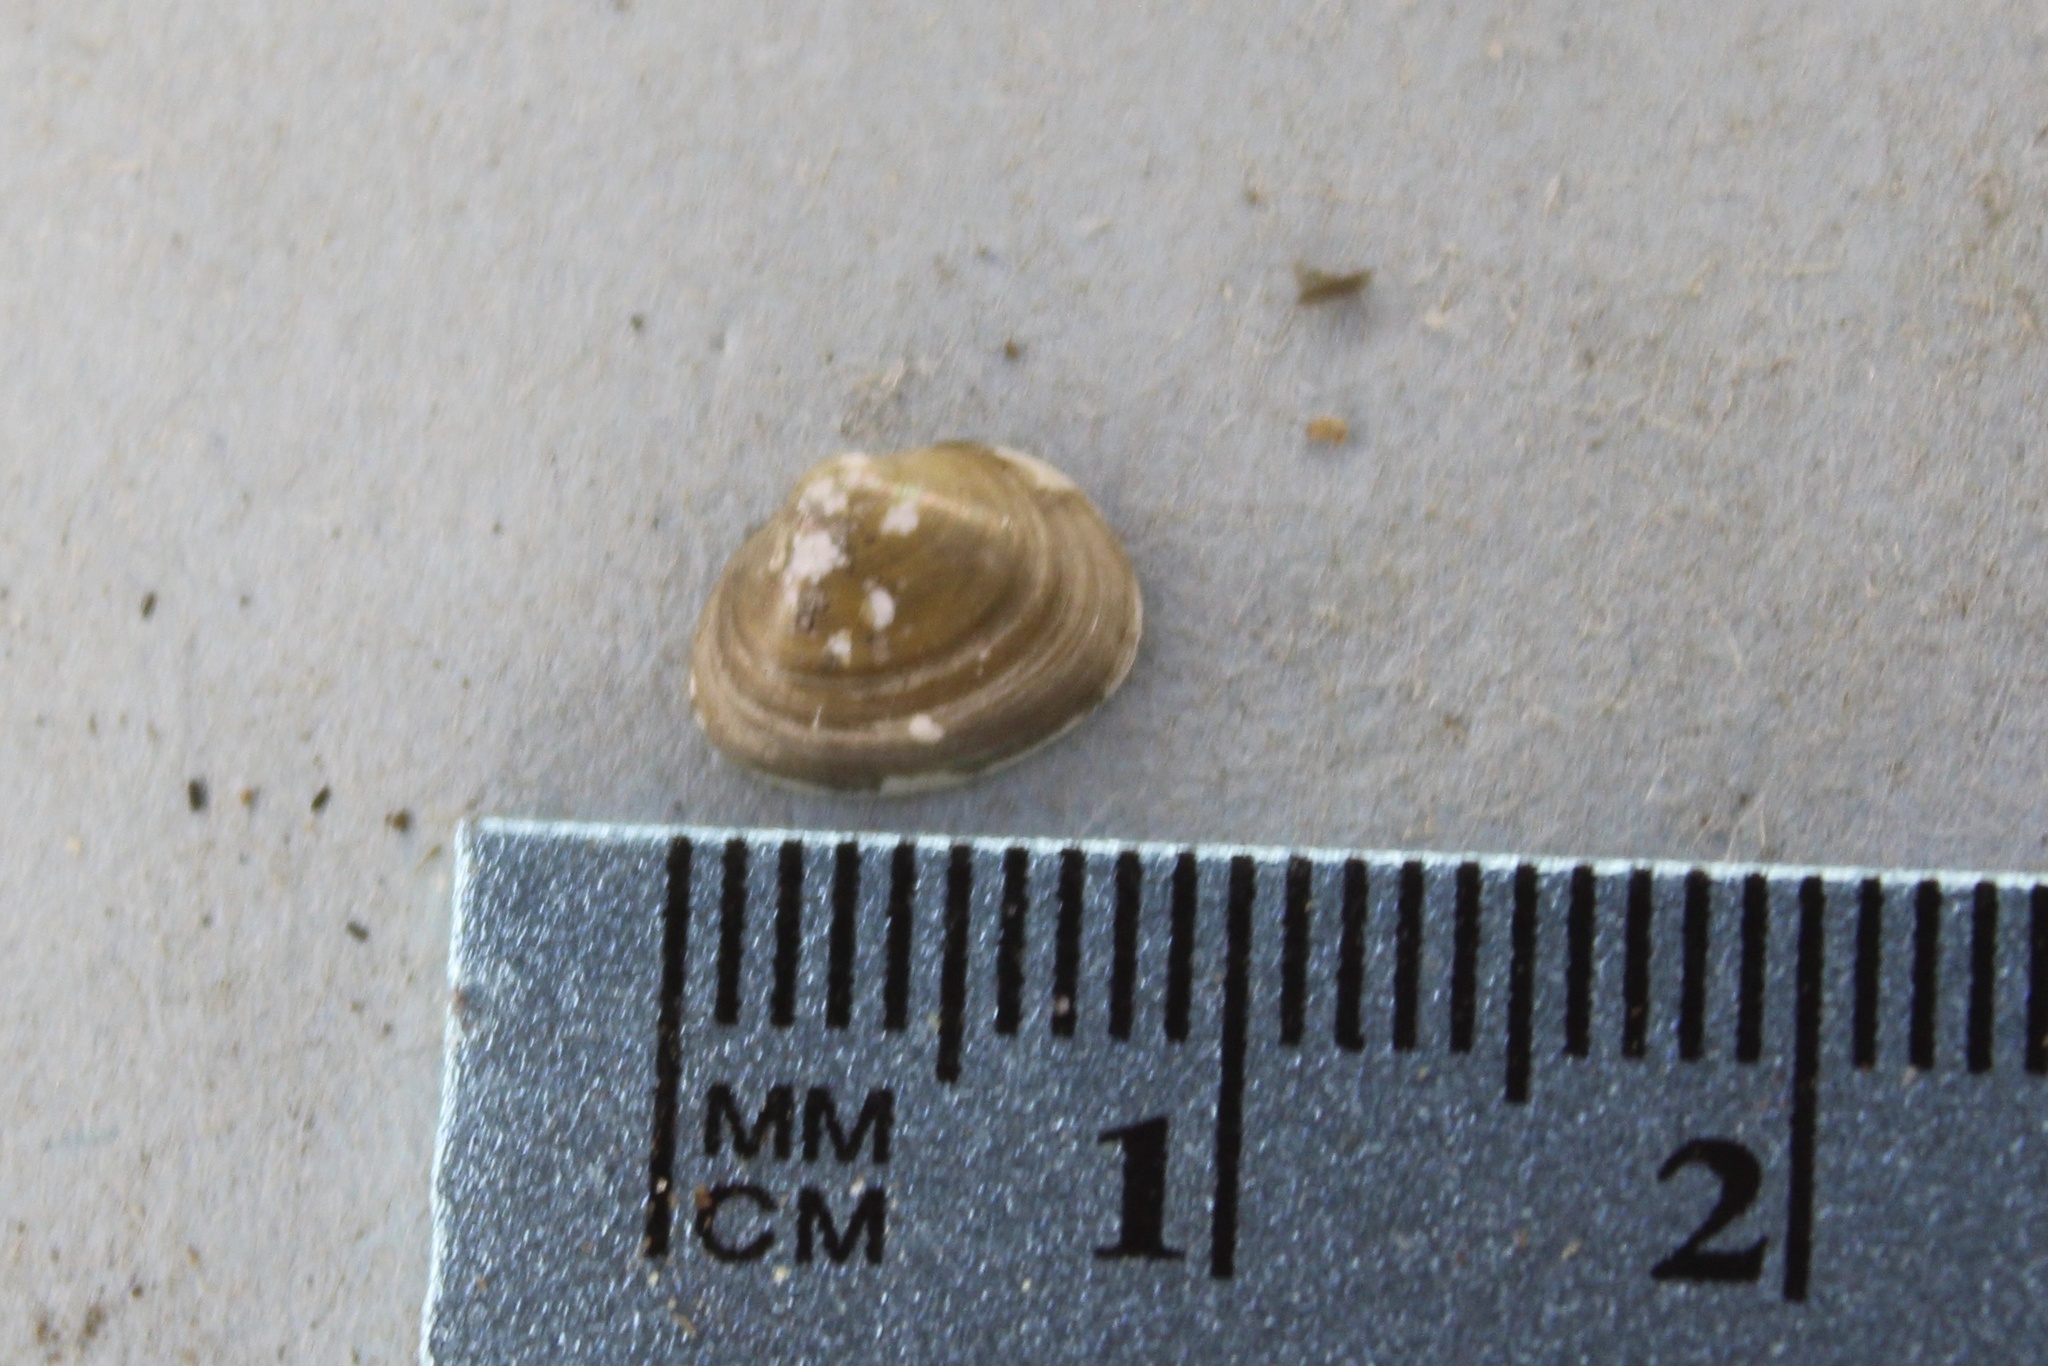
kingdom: Animalia
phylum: Mollusca
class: Bivalvia
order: Sphaeriida
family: Sphaeriidae
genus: Musculium
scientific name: Musculium lacustre
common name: Lake fingernailclam
